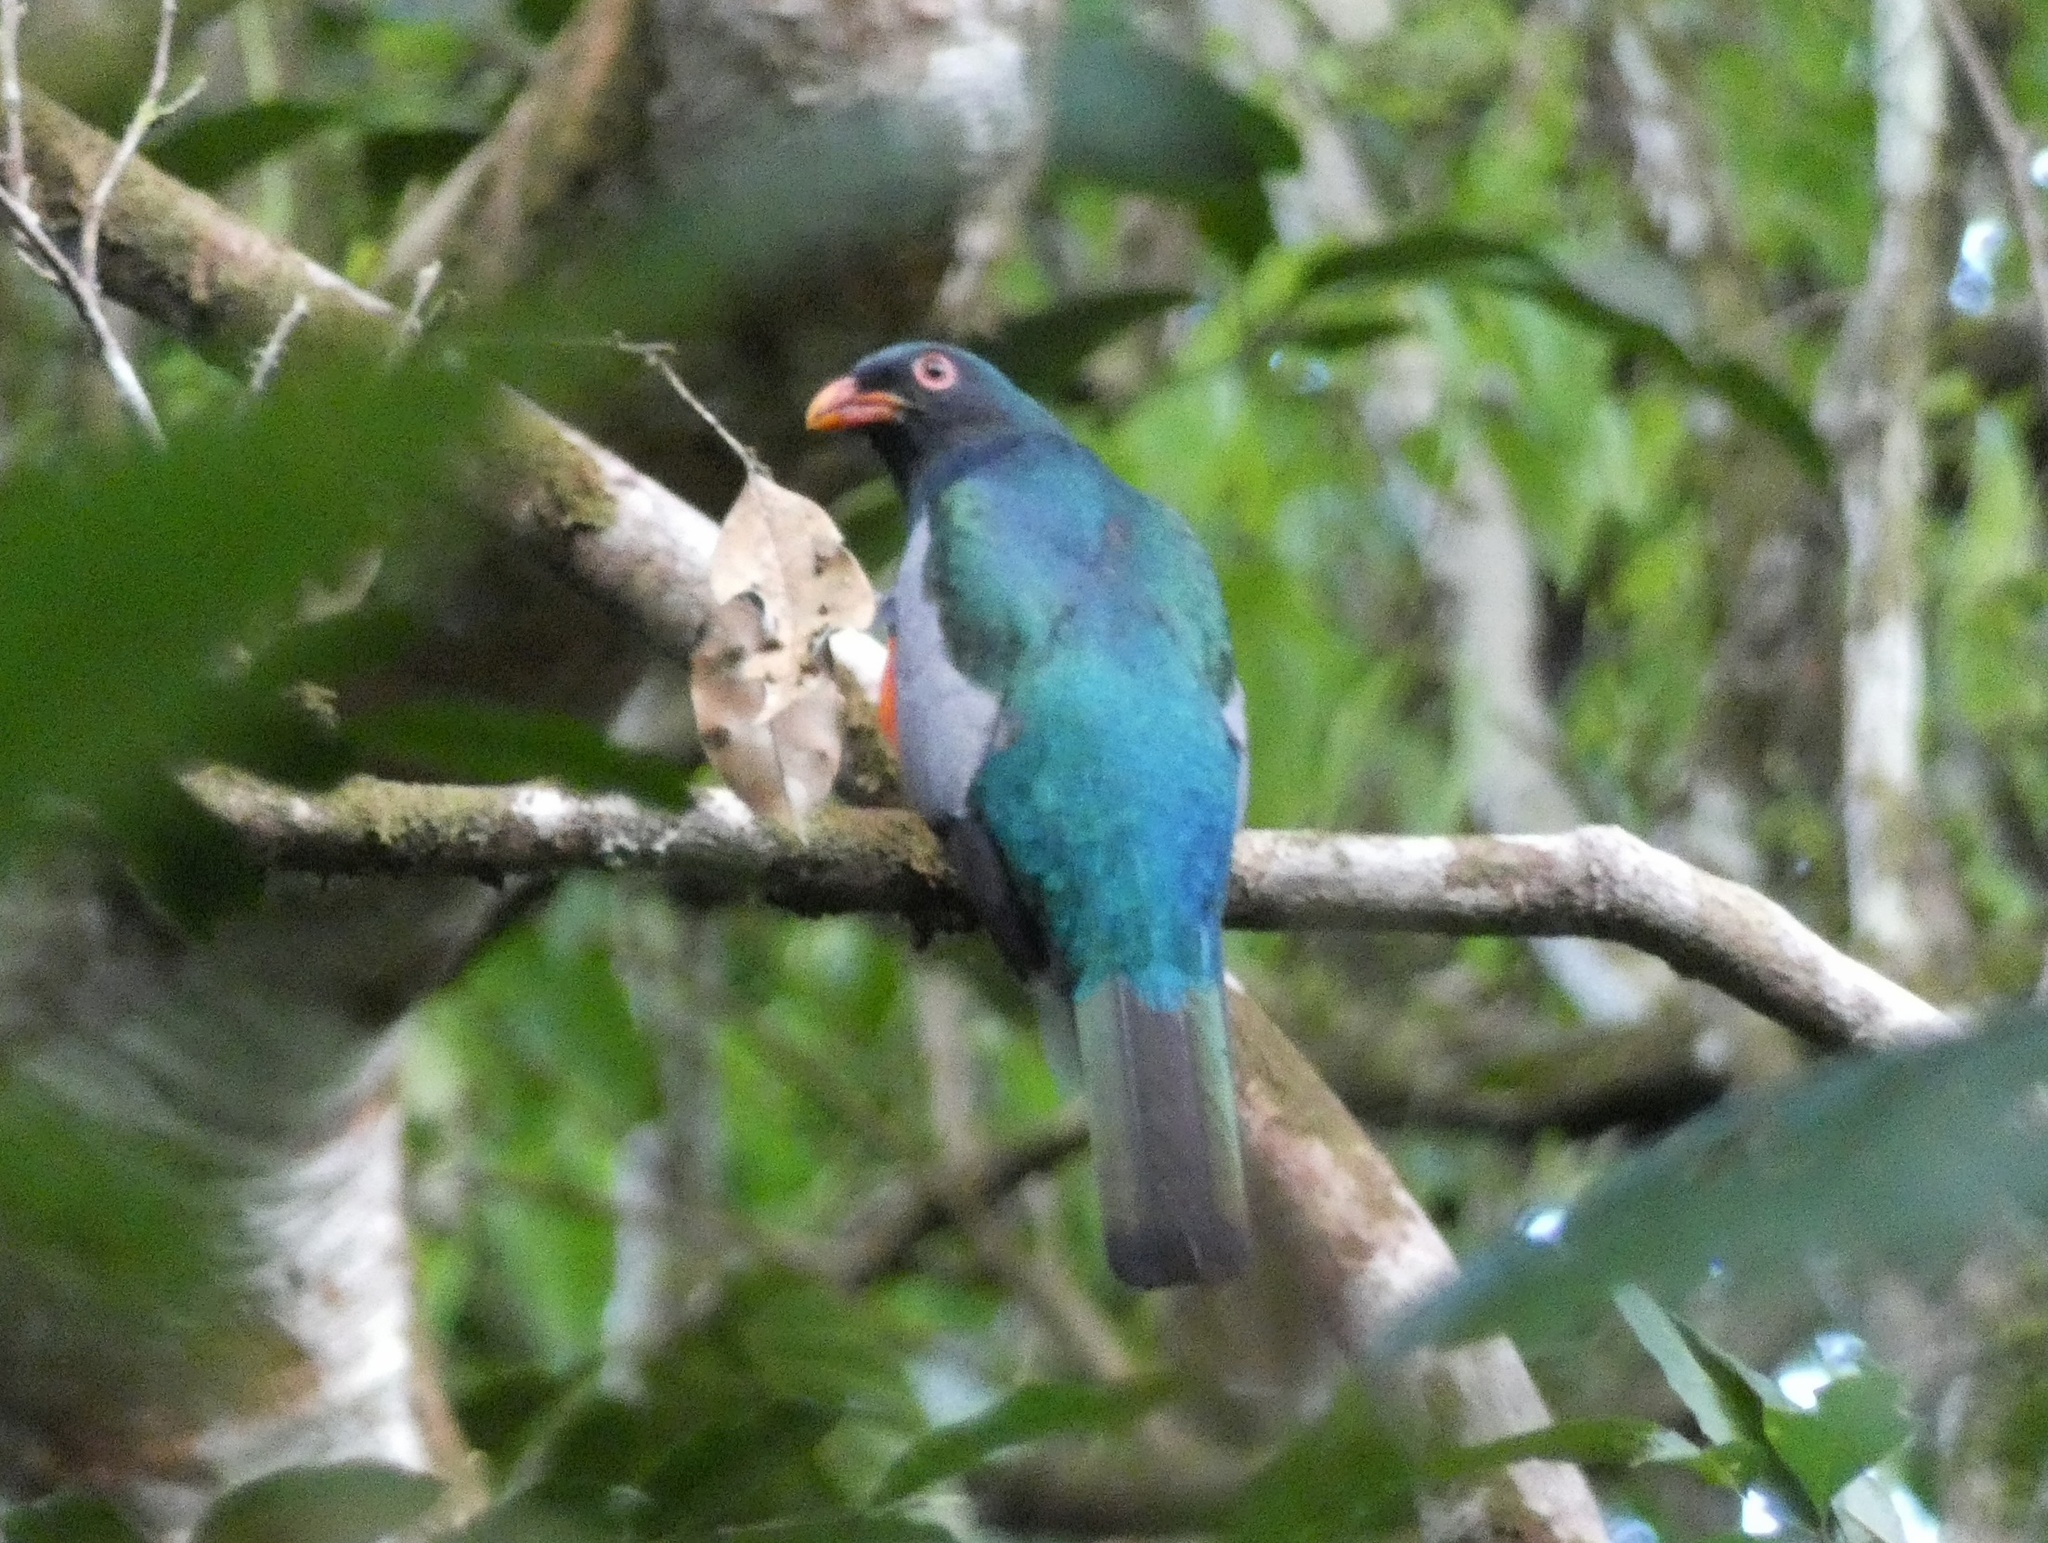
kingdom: Animalia
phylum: Chordata
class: Aves
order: Trogoniformes
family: Trogonidae
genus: Trogon
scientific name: Trogon massena
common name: Slaty-tailed trogon
